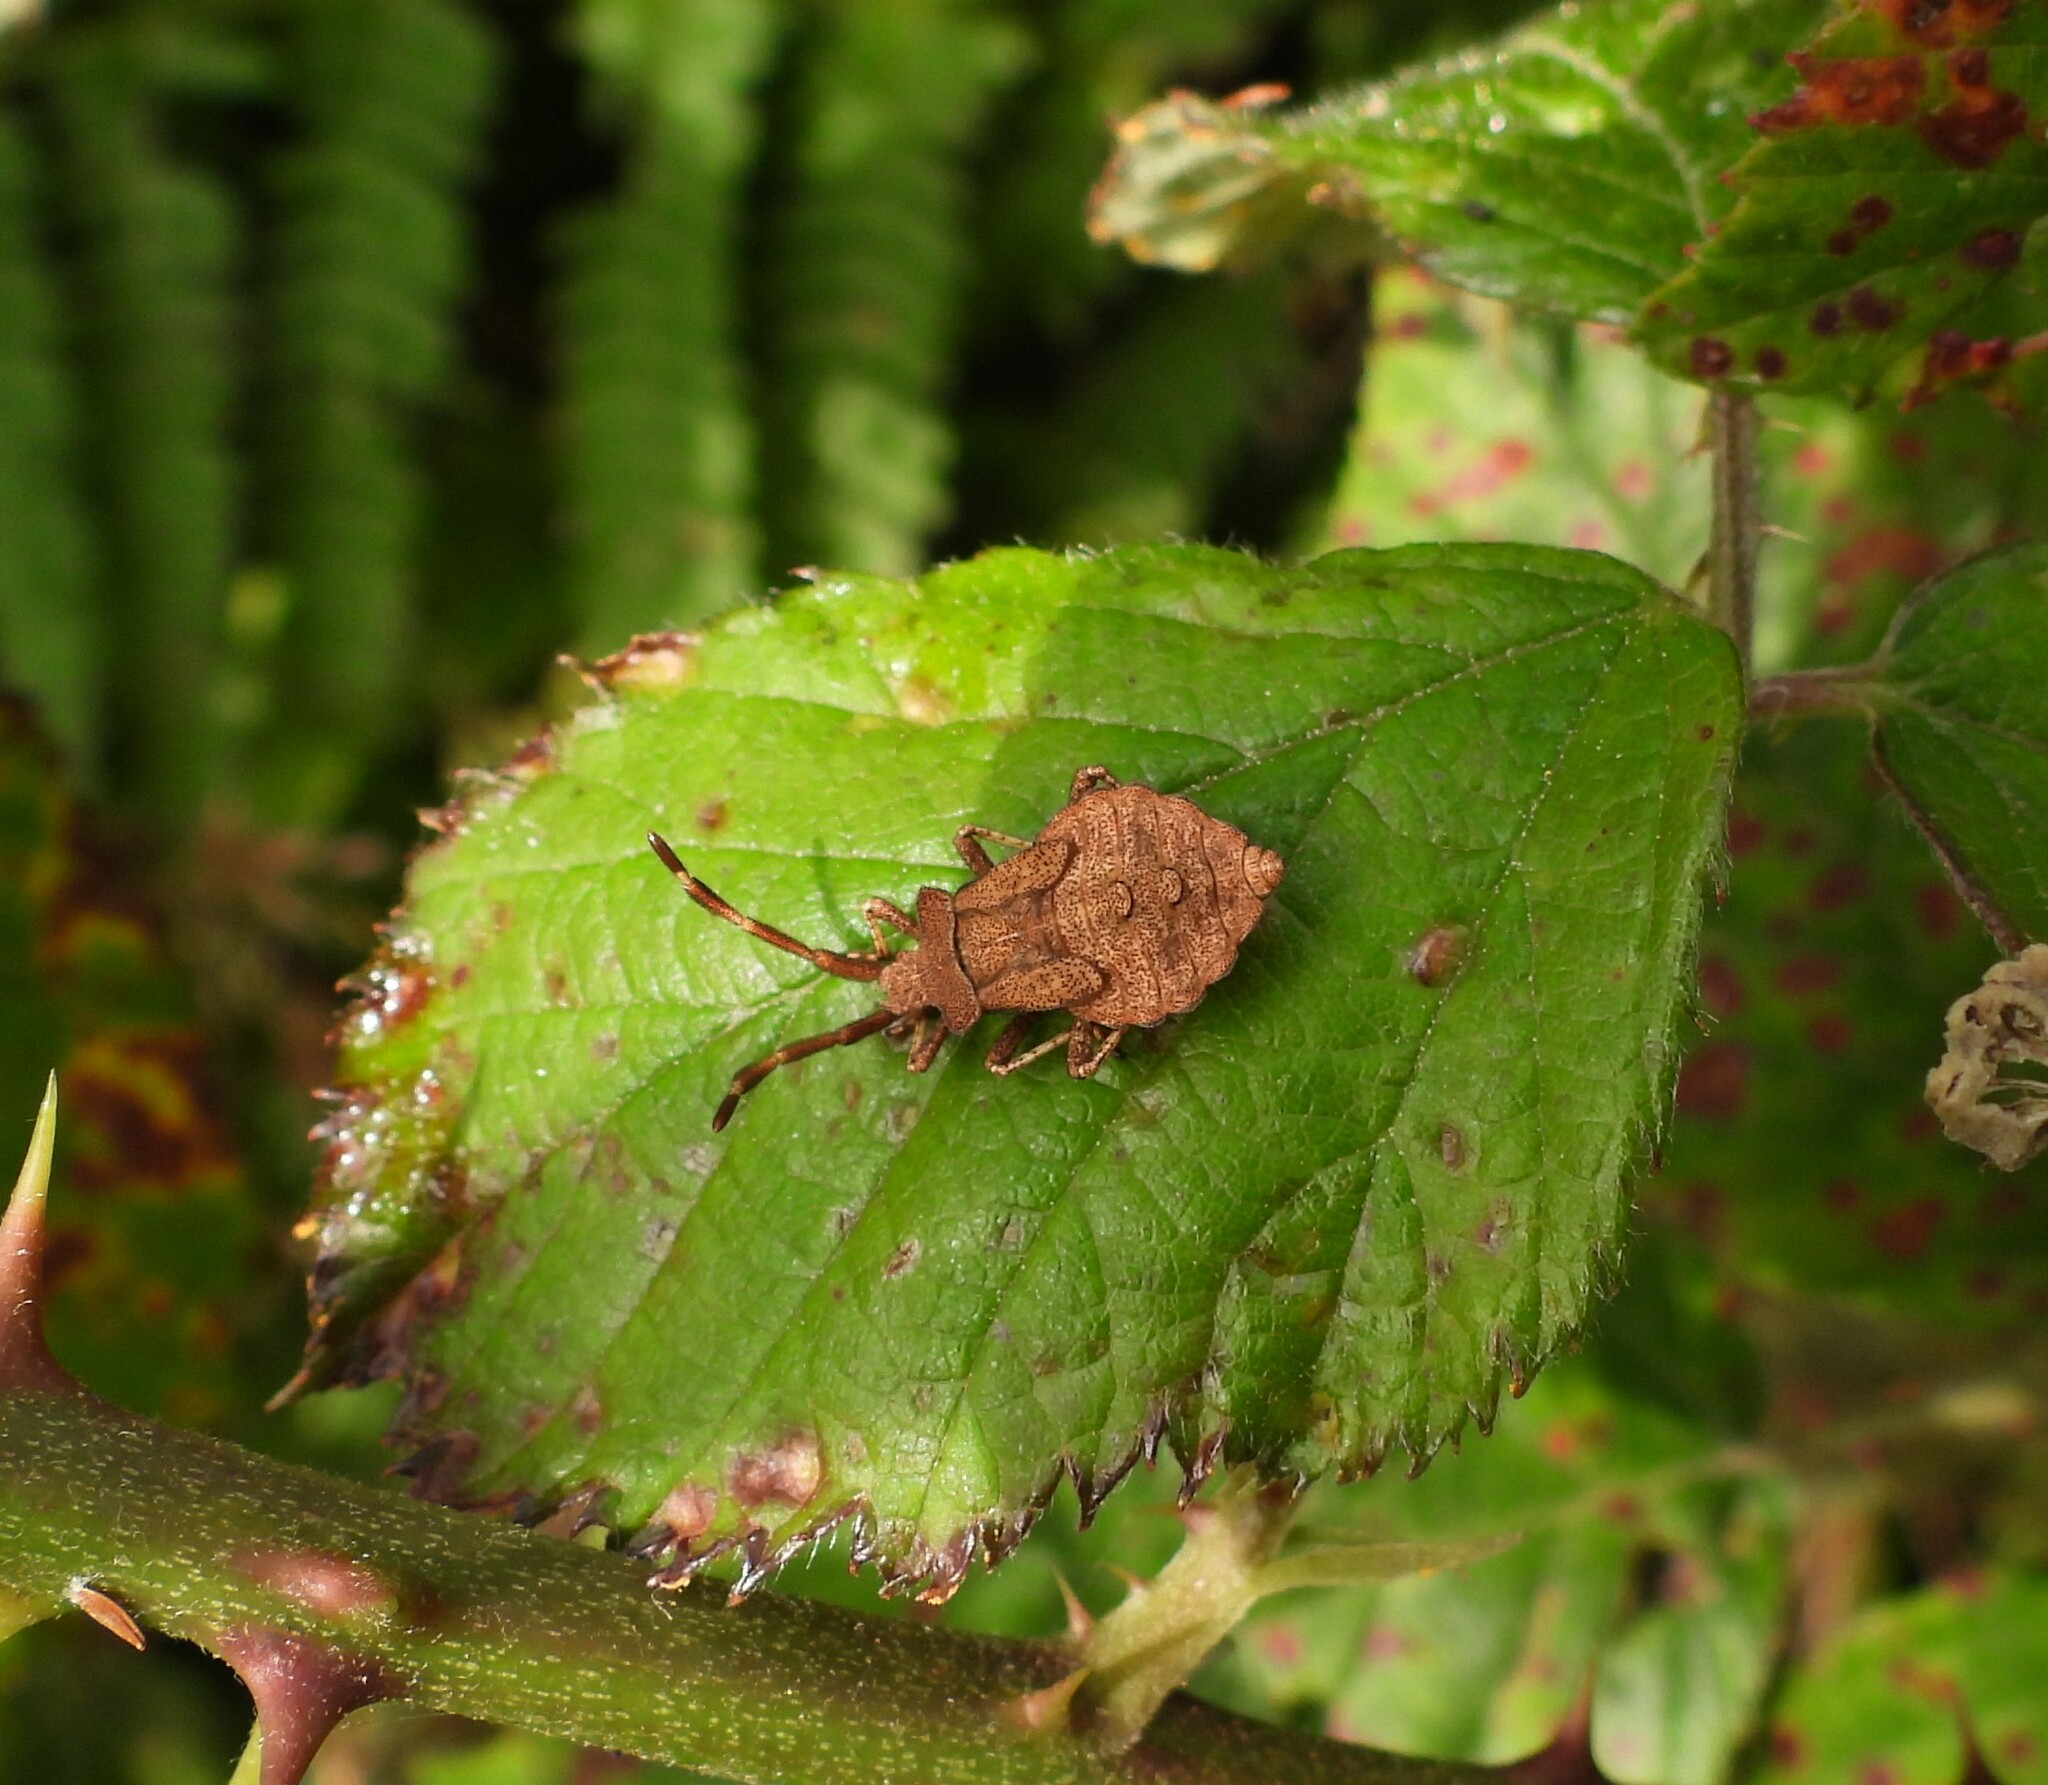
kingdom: Animalia
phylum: Arthropoda
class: Insecta
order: Hemiptera
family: Coreidae
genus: Coreus
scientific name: Coreus marginatus
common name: Dock bug
